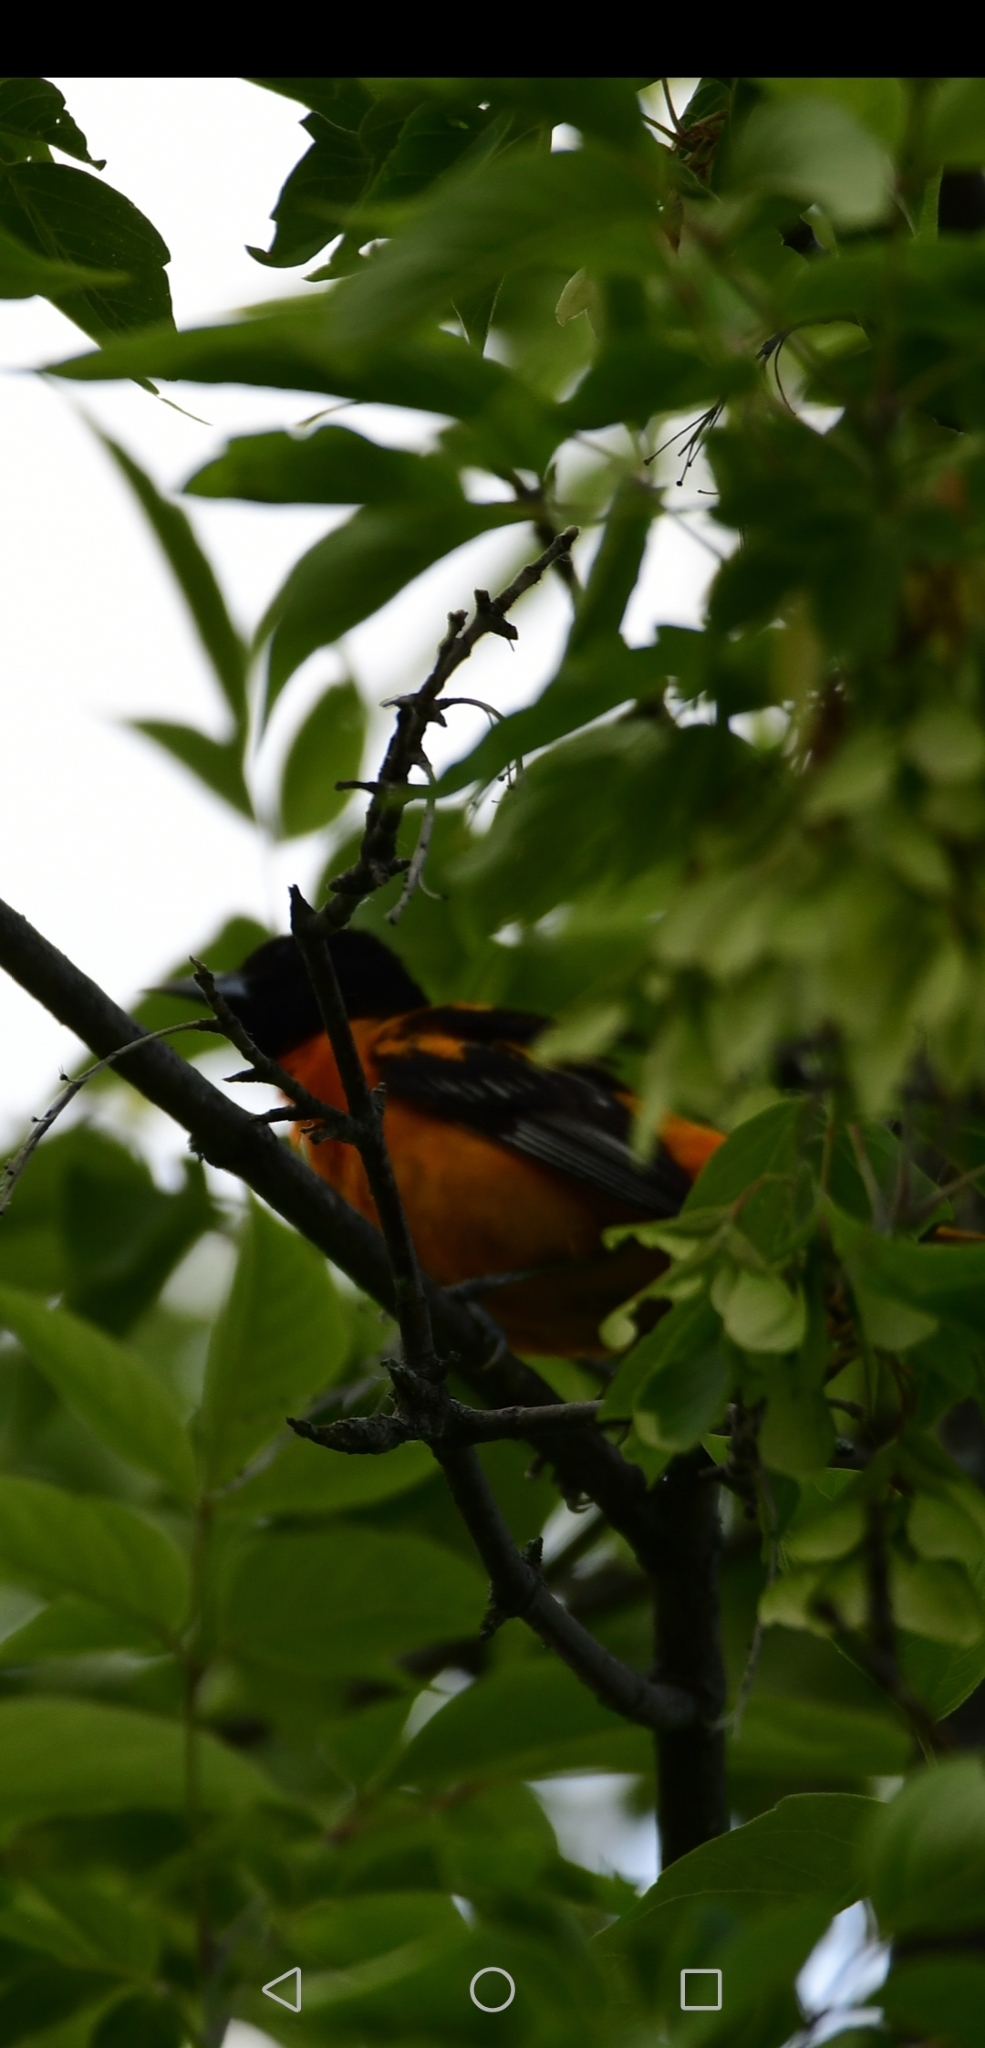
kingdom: Animalia
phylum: Chordata
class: Aves
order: Passeriformes
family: Icteridae
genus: Icterus
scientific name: Icterus galbula
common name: Baltimore oriole
